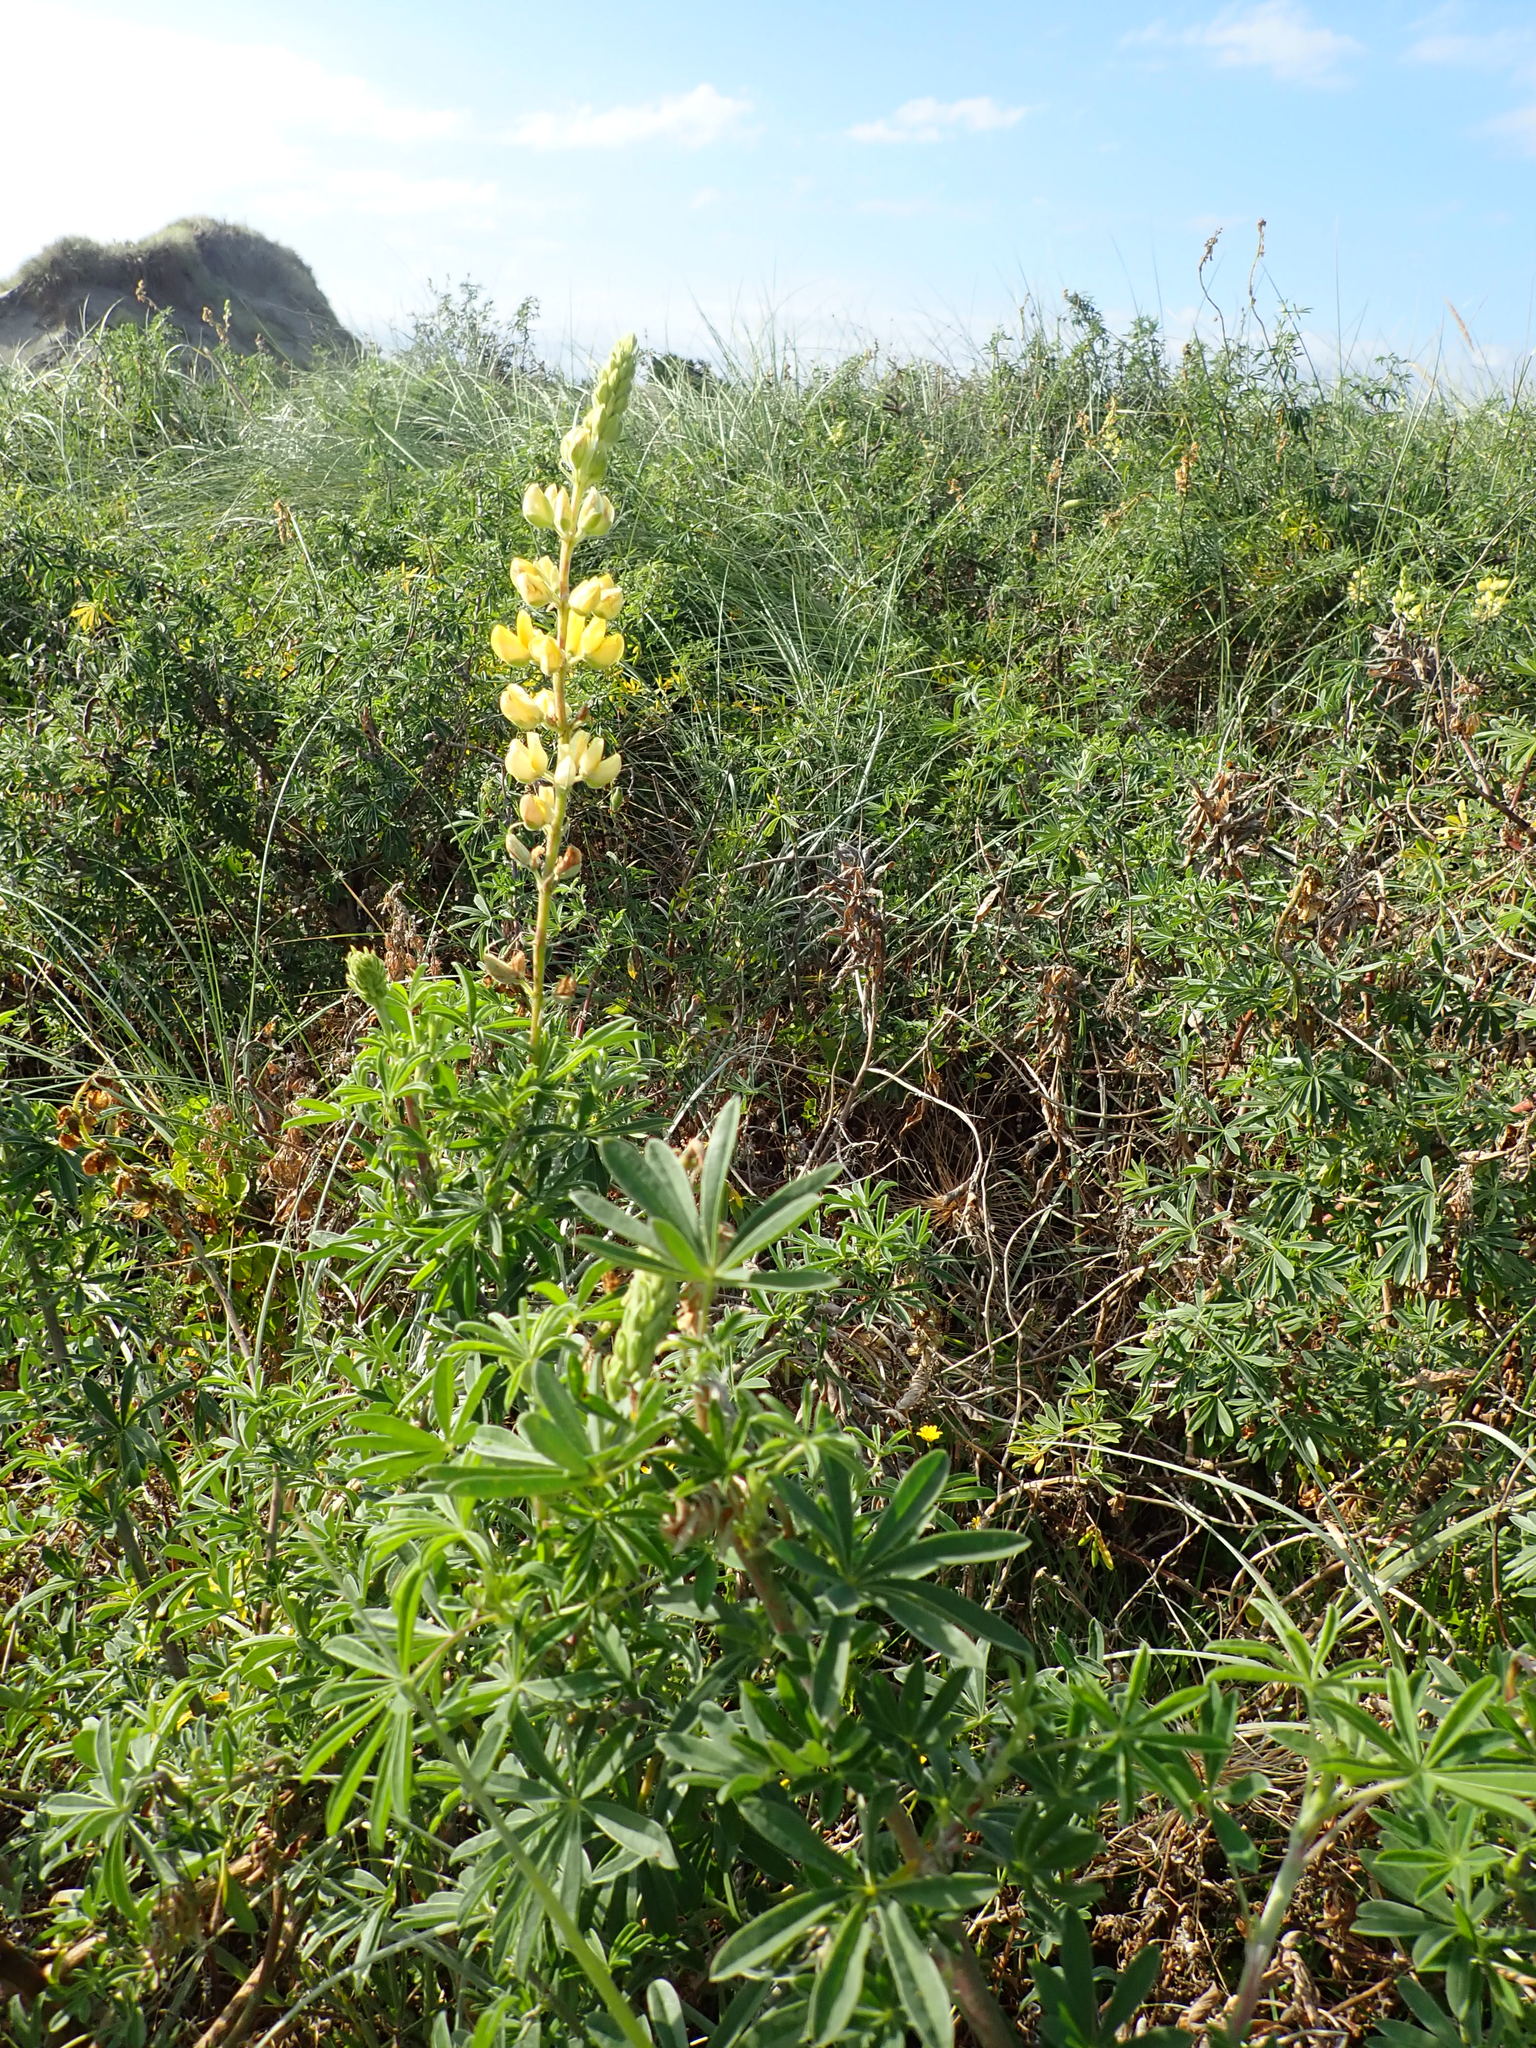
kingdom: Plantae
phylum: Tracheophyta
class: Magnoliopsida
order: Fabales
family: Fabaceae
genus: Lupinus
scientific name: Lupinus arboreus
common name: Yellow bush lupine
